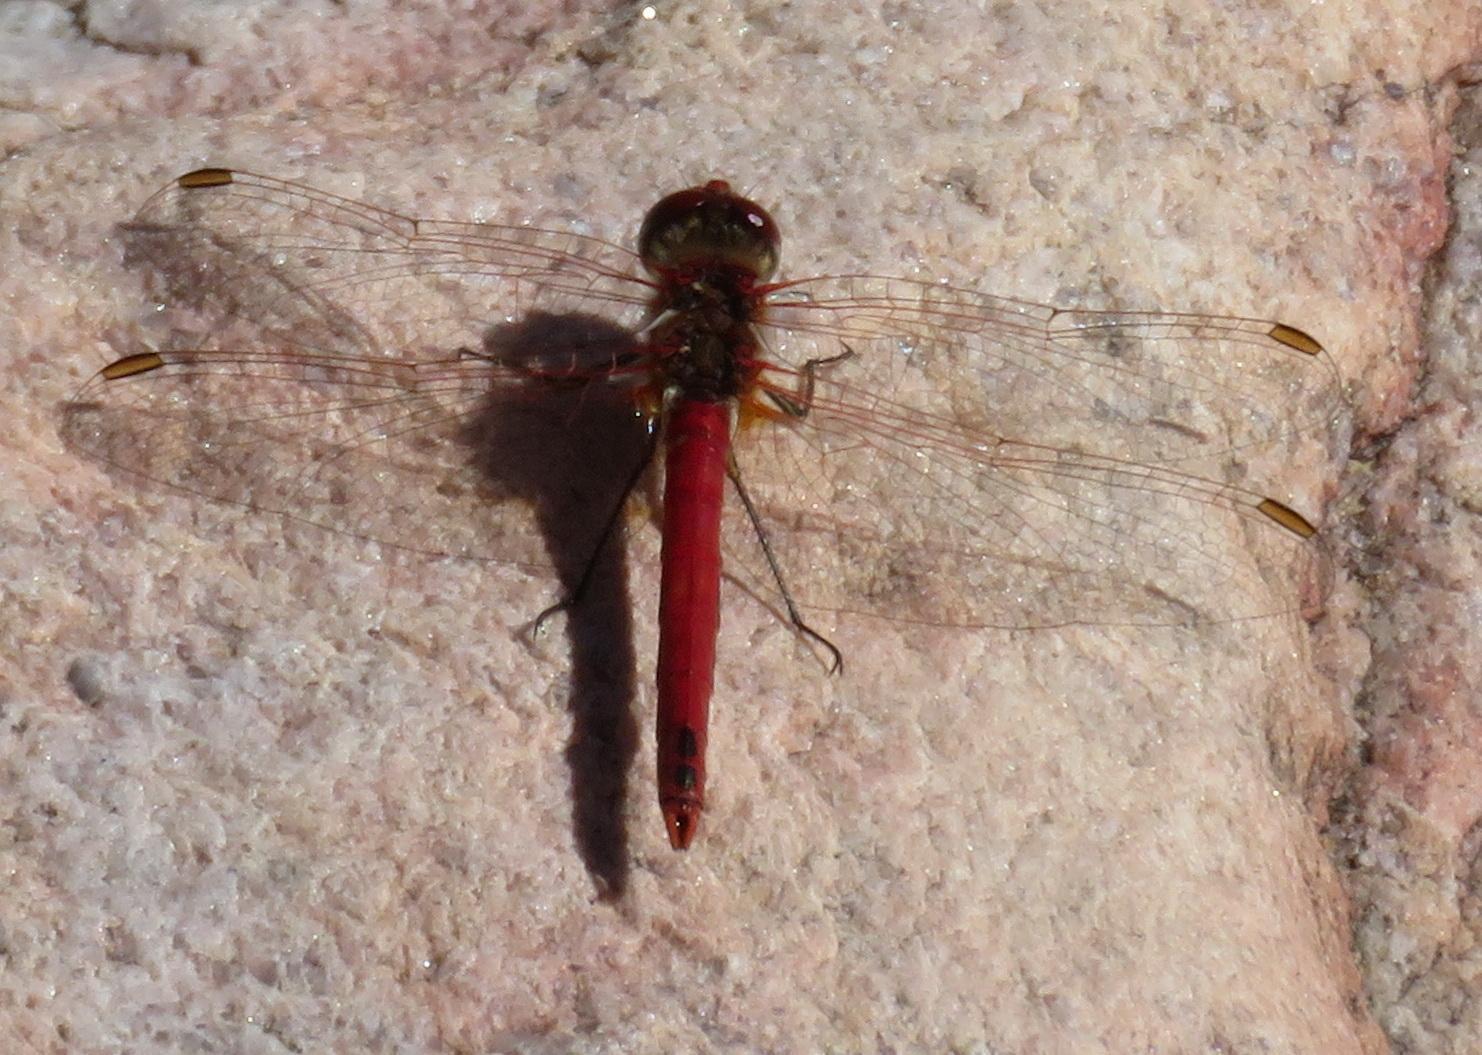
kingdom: Animalia
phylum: Arthropoda
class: Insecta
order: Odonata
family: Libellulidae
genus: Sympetrum
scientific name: Sympetrum fonscolombii
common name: Red-veined darter
